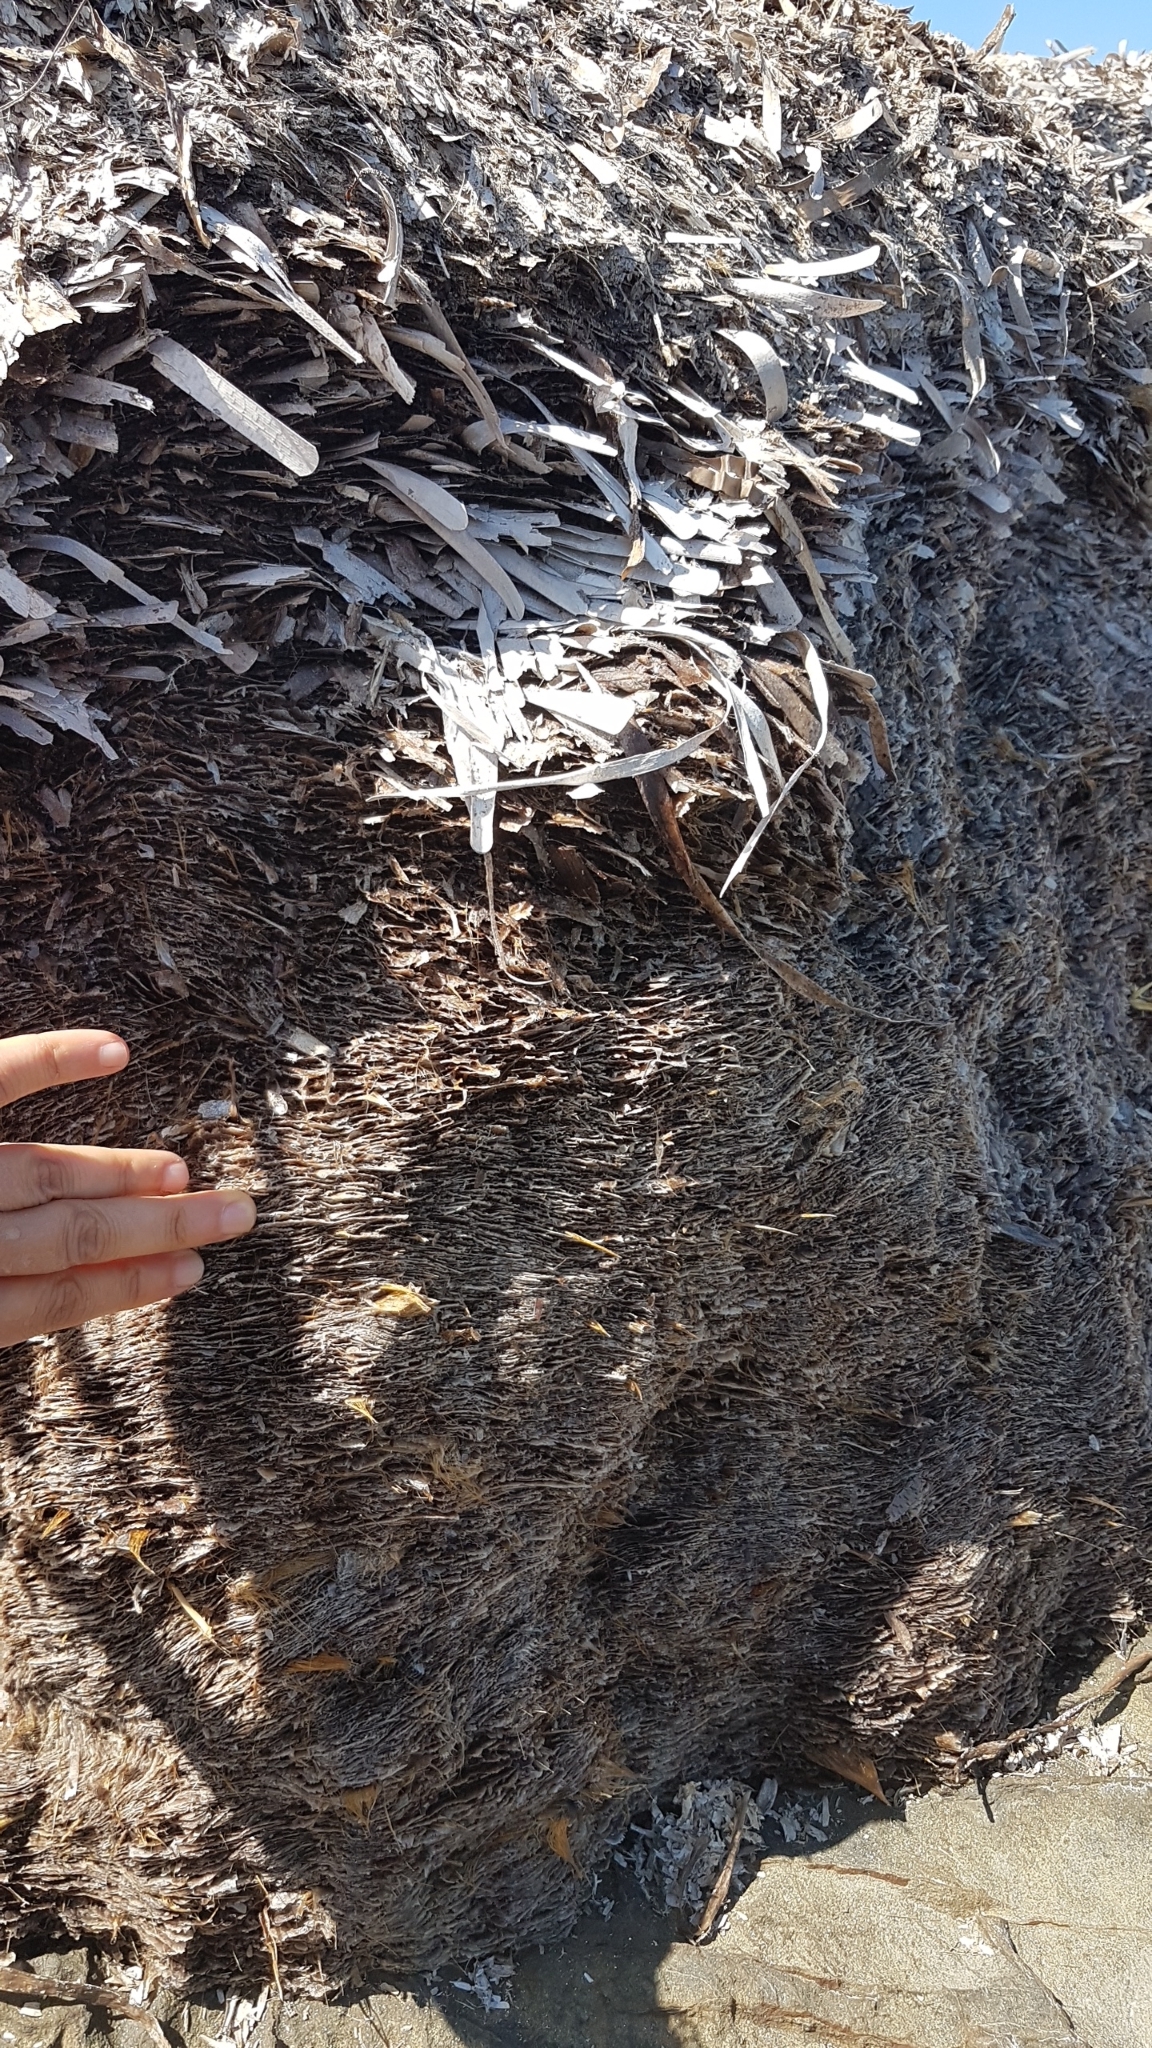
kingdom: Plantae
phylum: Tracheophyta
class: Liliopsida
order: Alismatales
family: Posidoniaceae
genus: Posidonia
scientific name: Posidonia oceanica
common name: Mediterranean tapeweed
